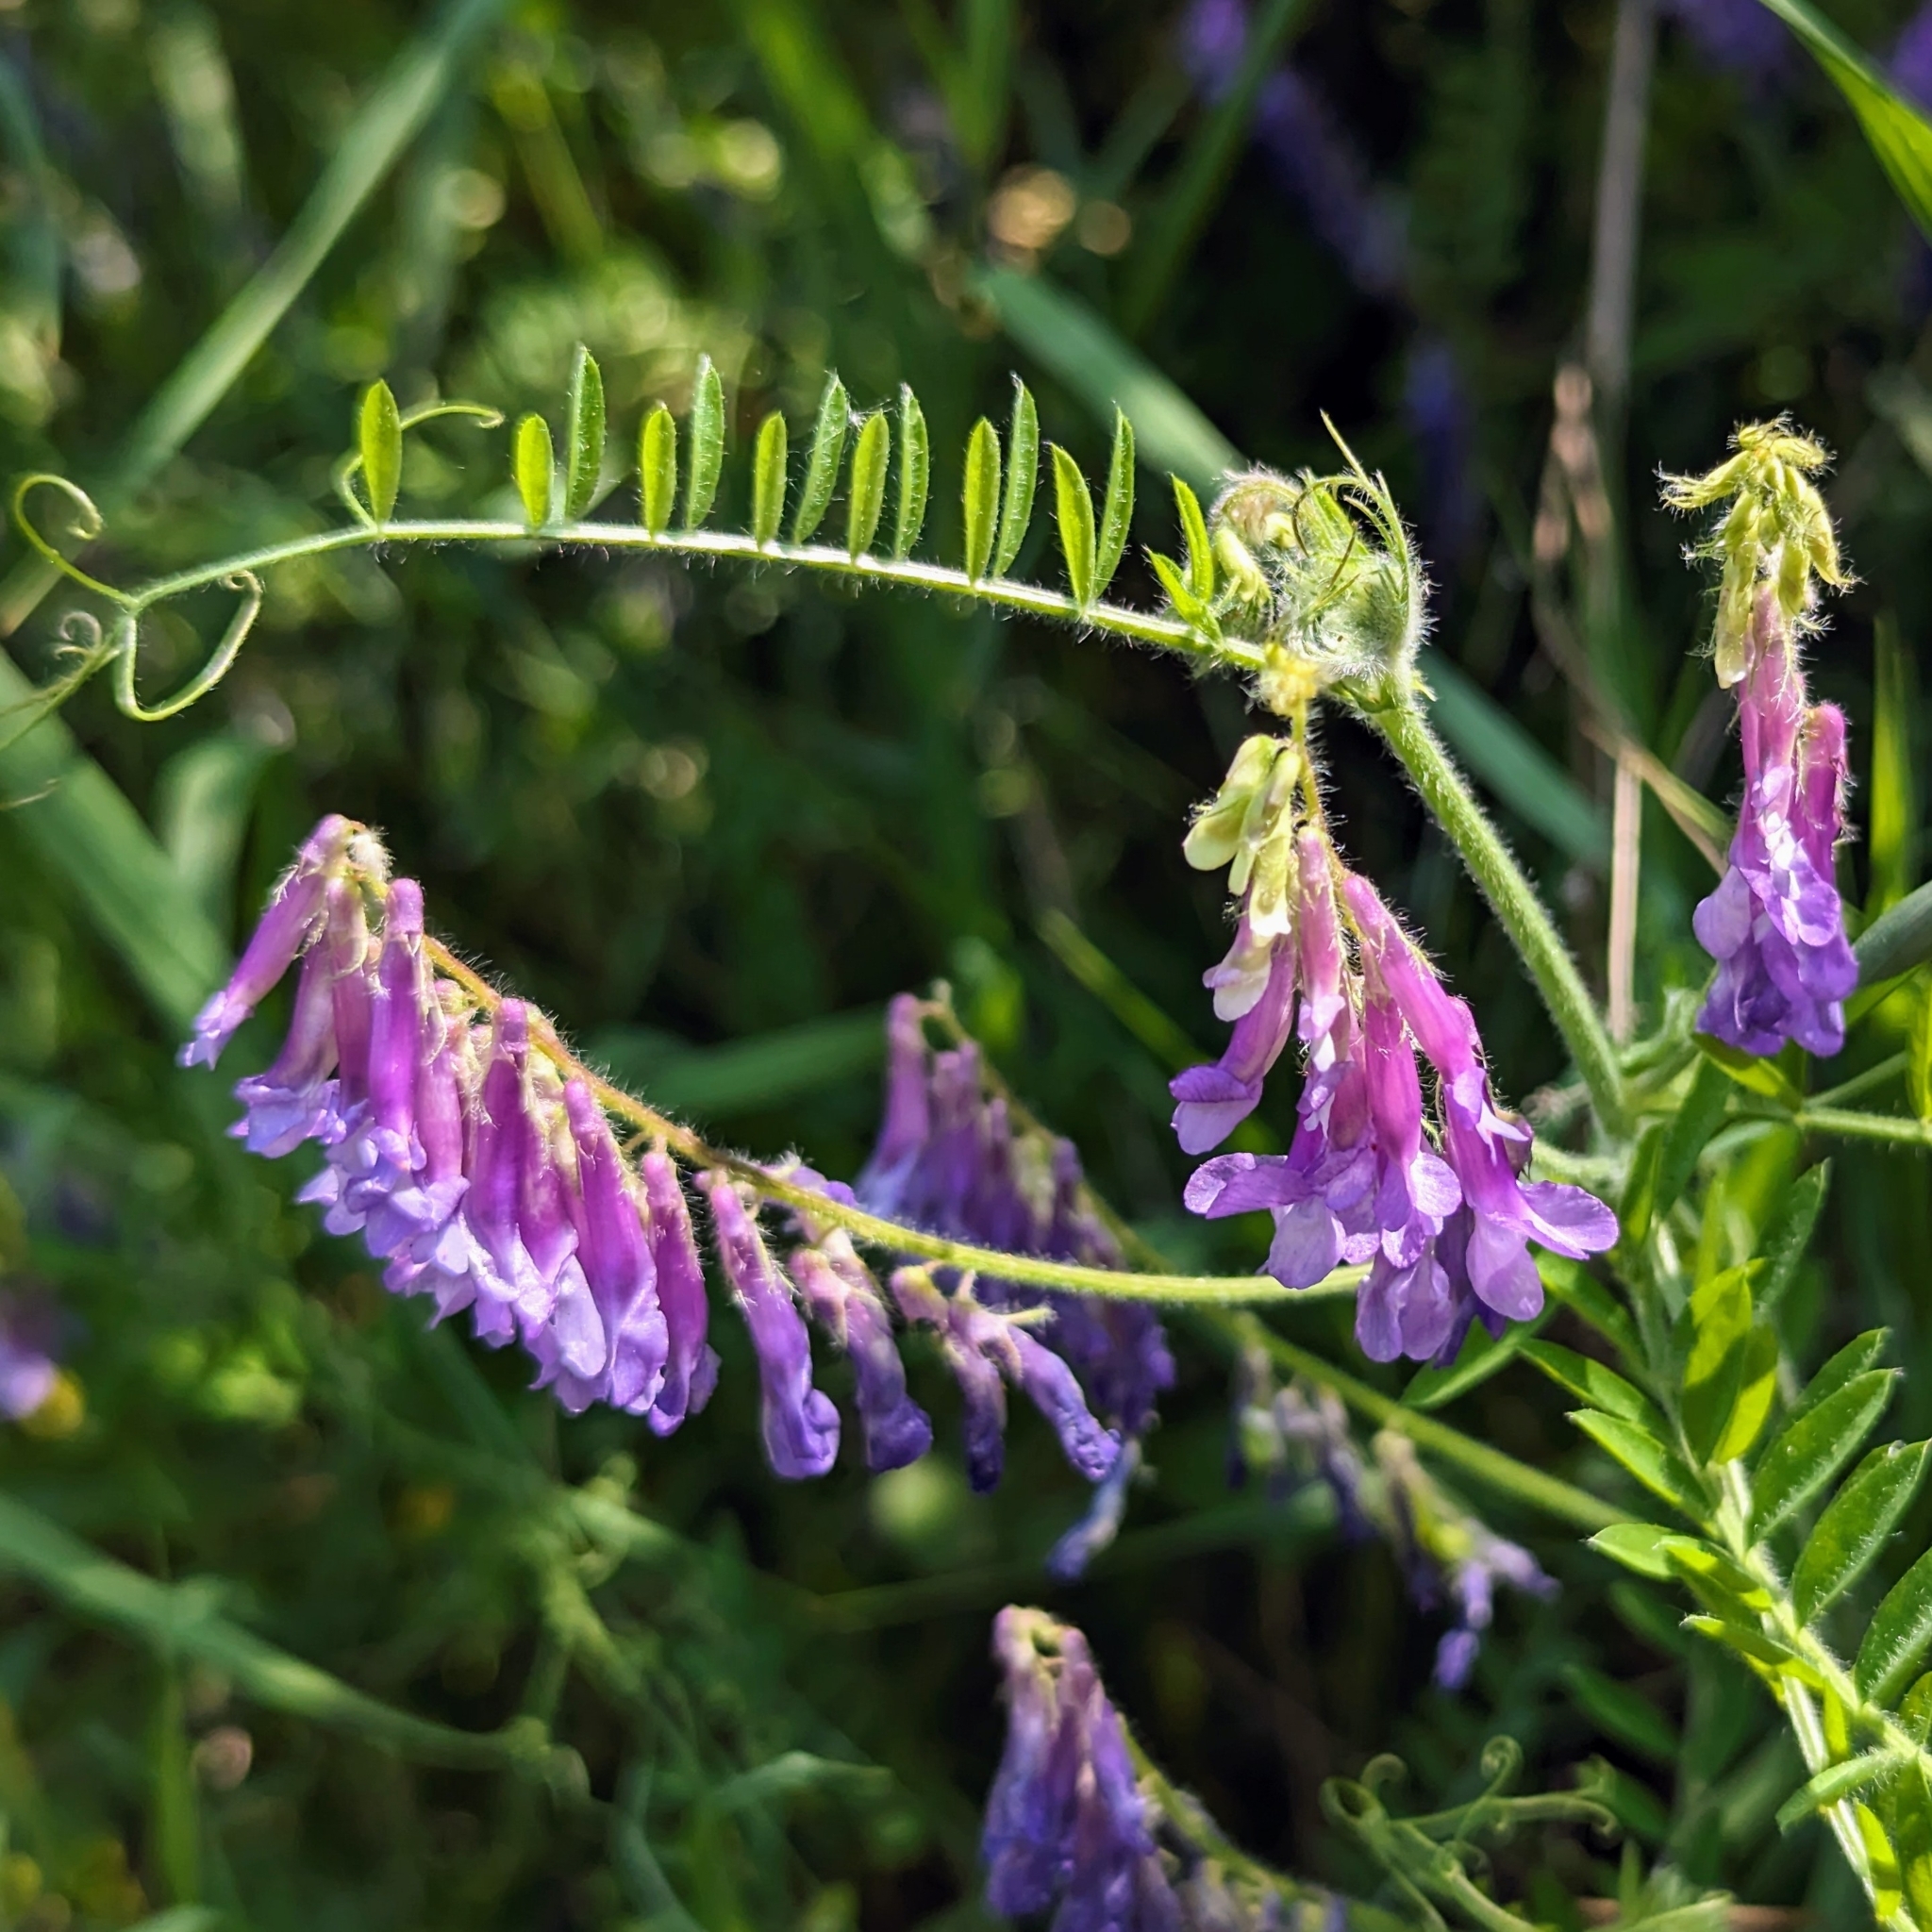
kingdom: Plantae
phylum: Tracheophyta
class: Magnoliopsida
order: Fabales
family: Fabaceae
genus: Vicia
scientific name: Vicia villosa
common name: Fodder vetch
